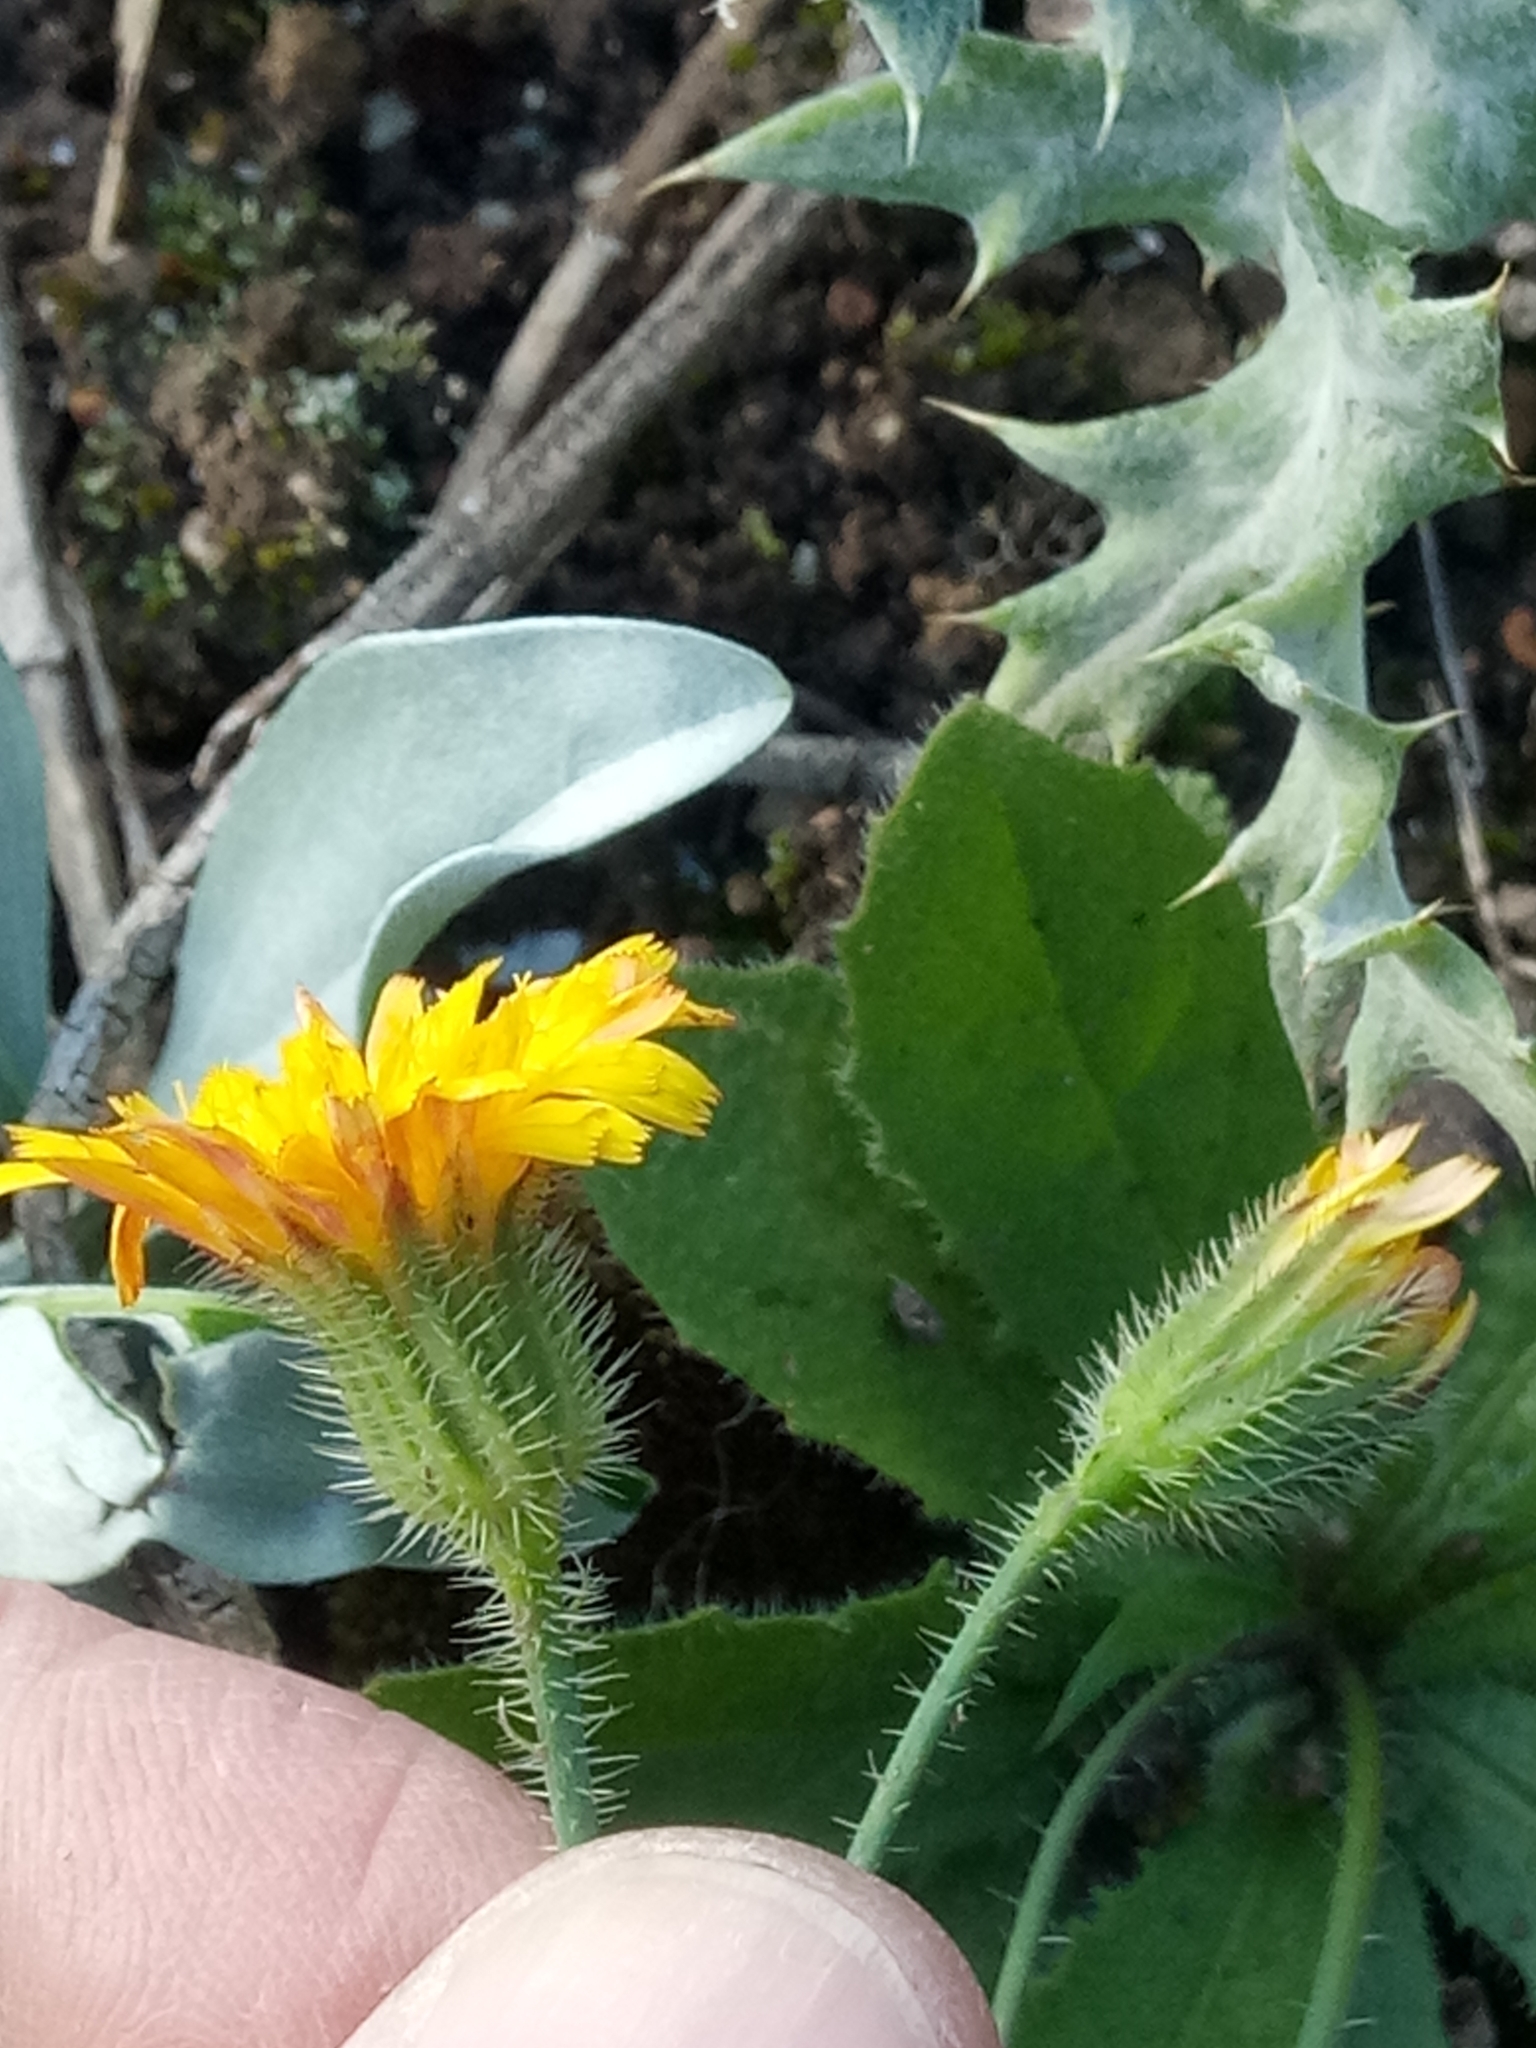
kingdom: Plantae
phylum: Tracheophyta
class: Magnoliopsida
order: Asterales
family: Asteraceae
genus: Achyrophorus
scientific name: Achyrophorus valdesii
